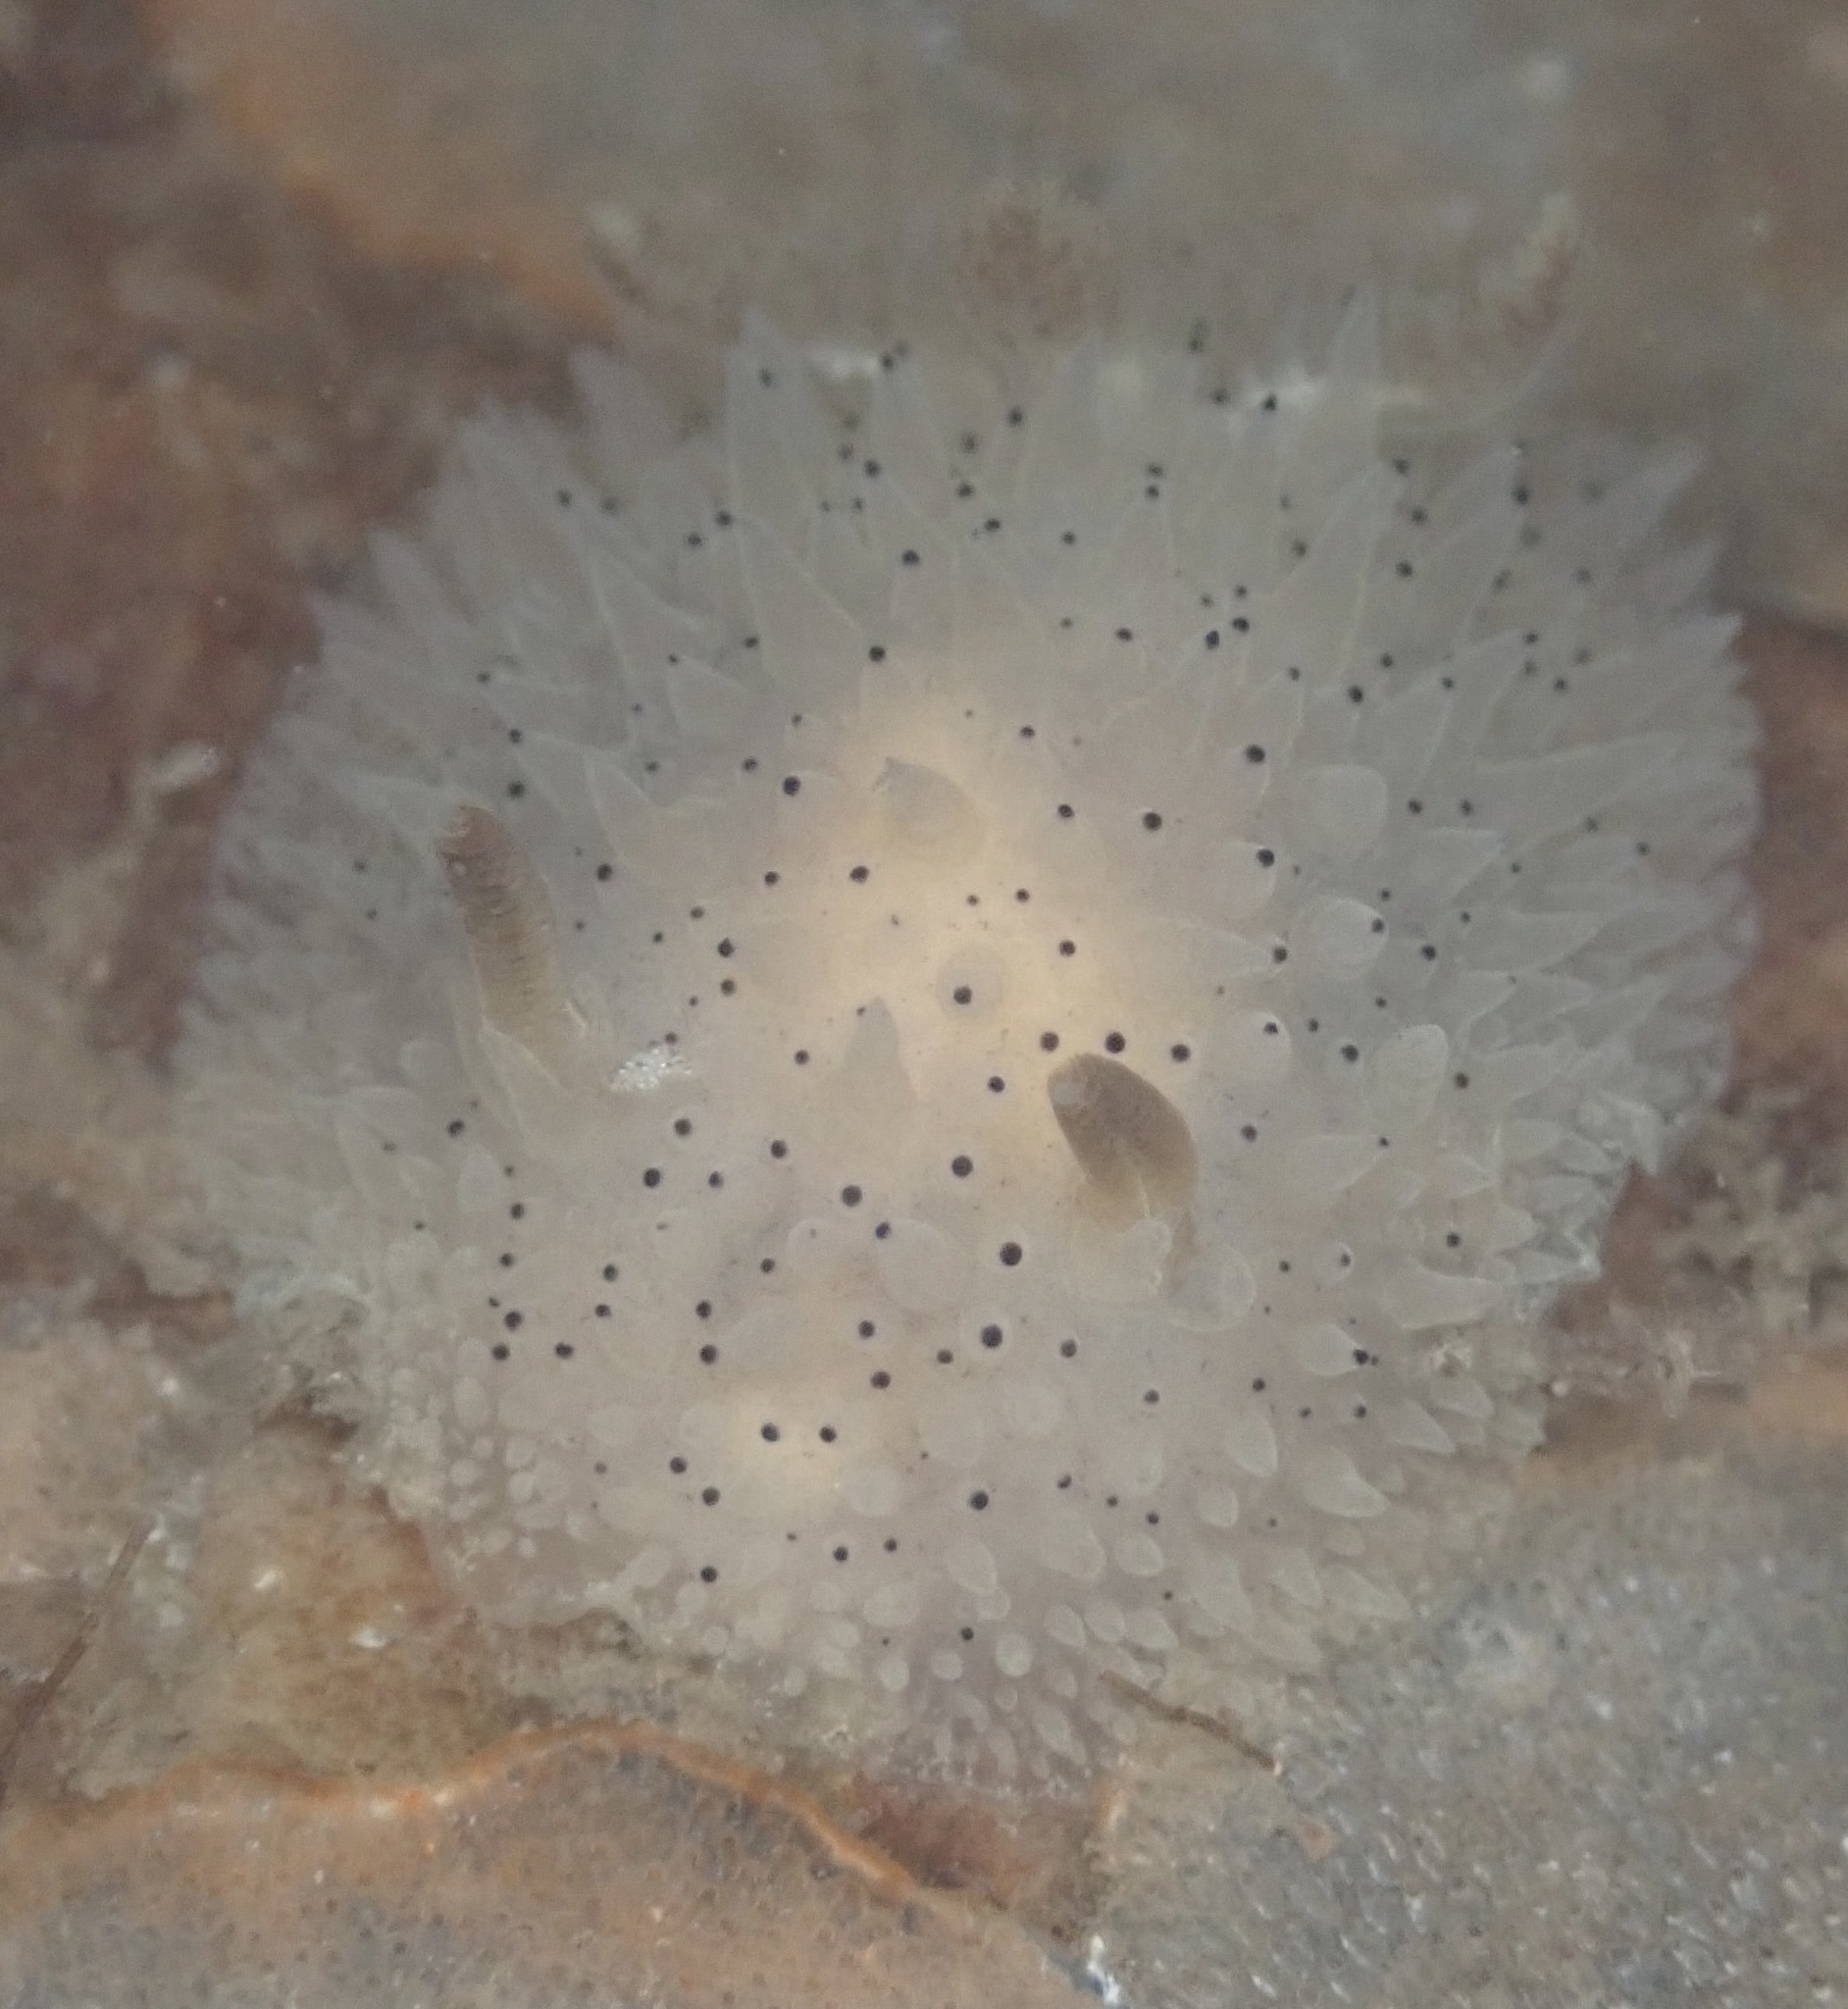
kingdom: Animalia
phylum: Mollusca
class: Gastropoda
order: Nudibranchia
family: Onchidorididae
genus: Acanthodoris
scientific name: Acanthodoris rhodoceras
